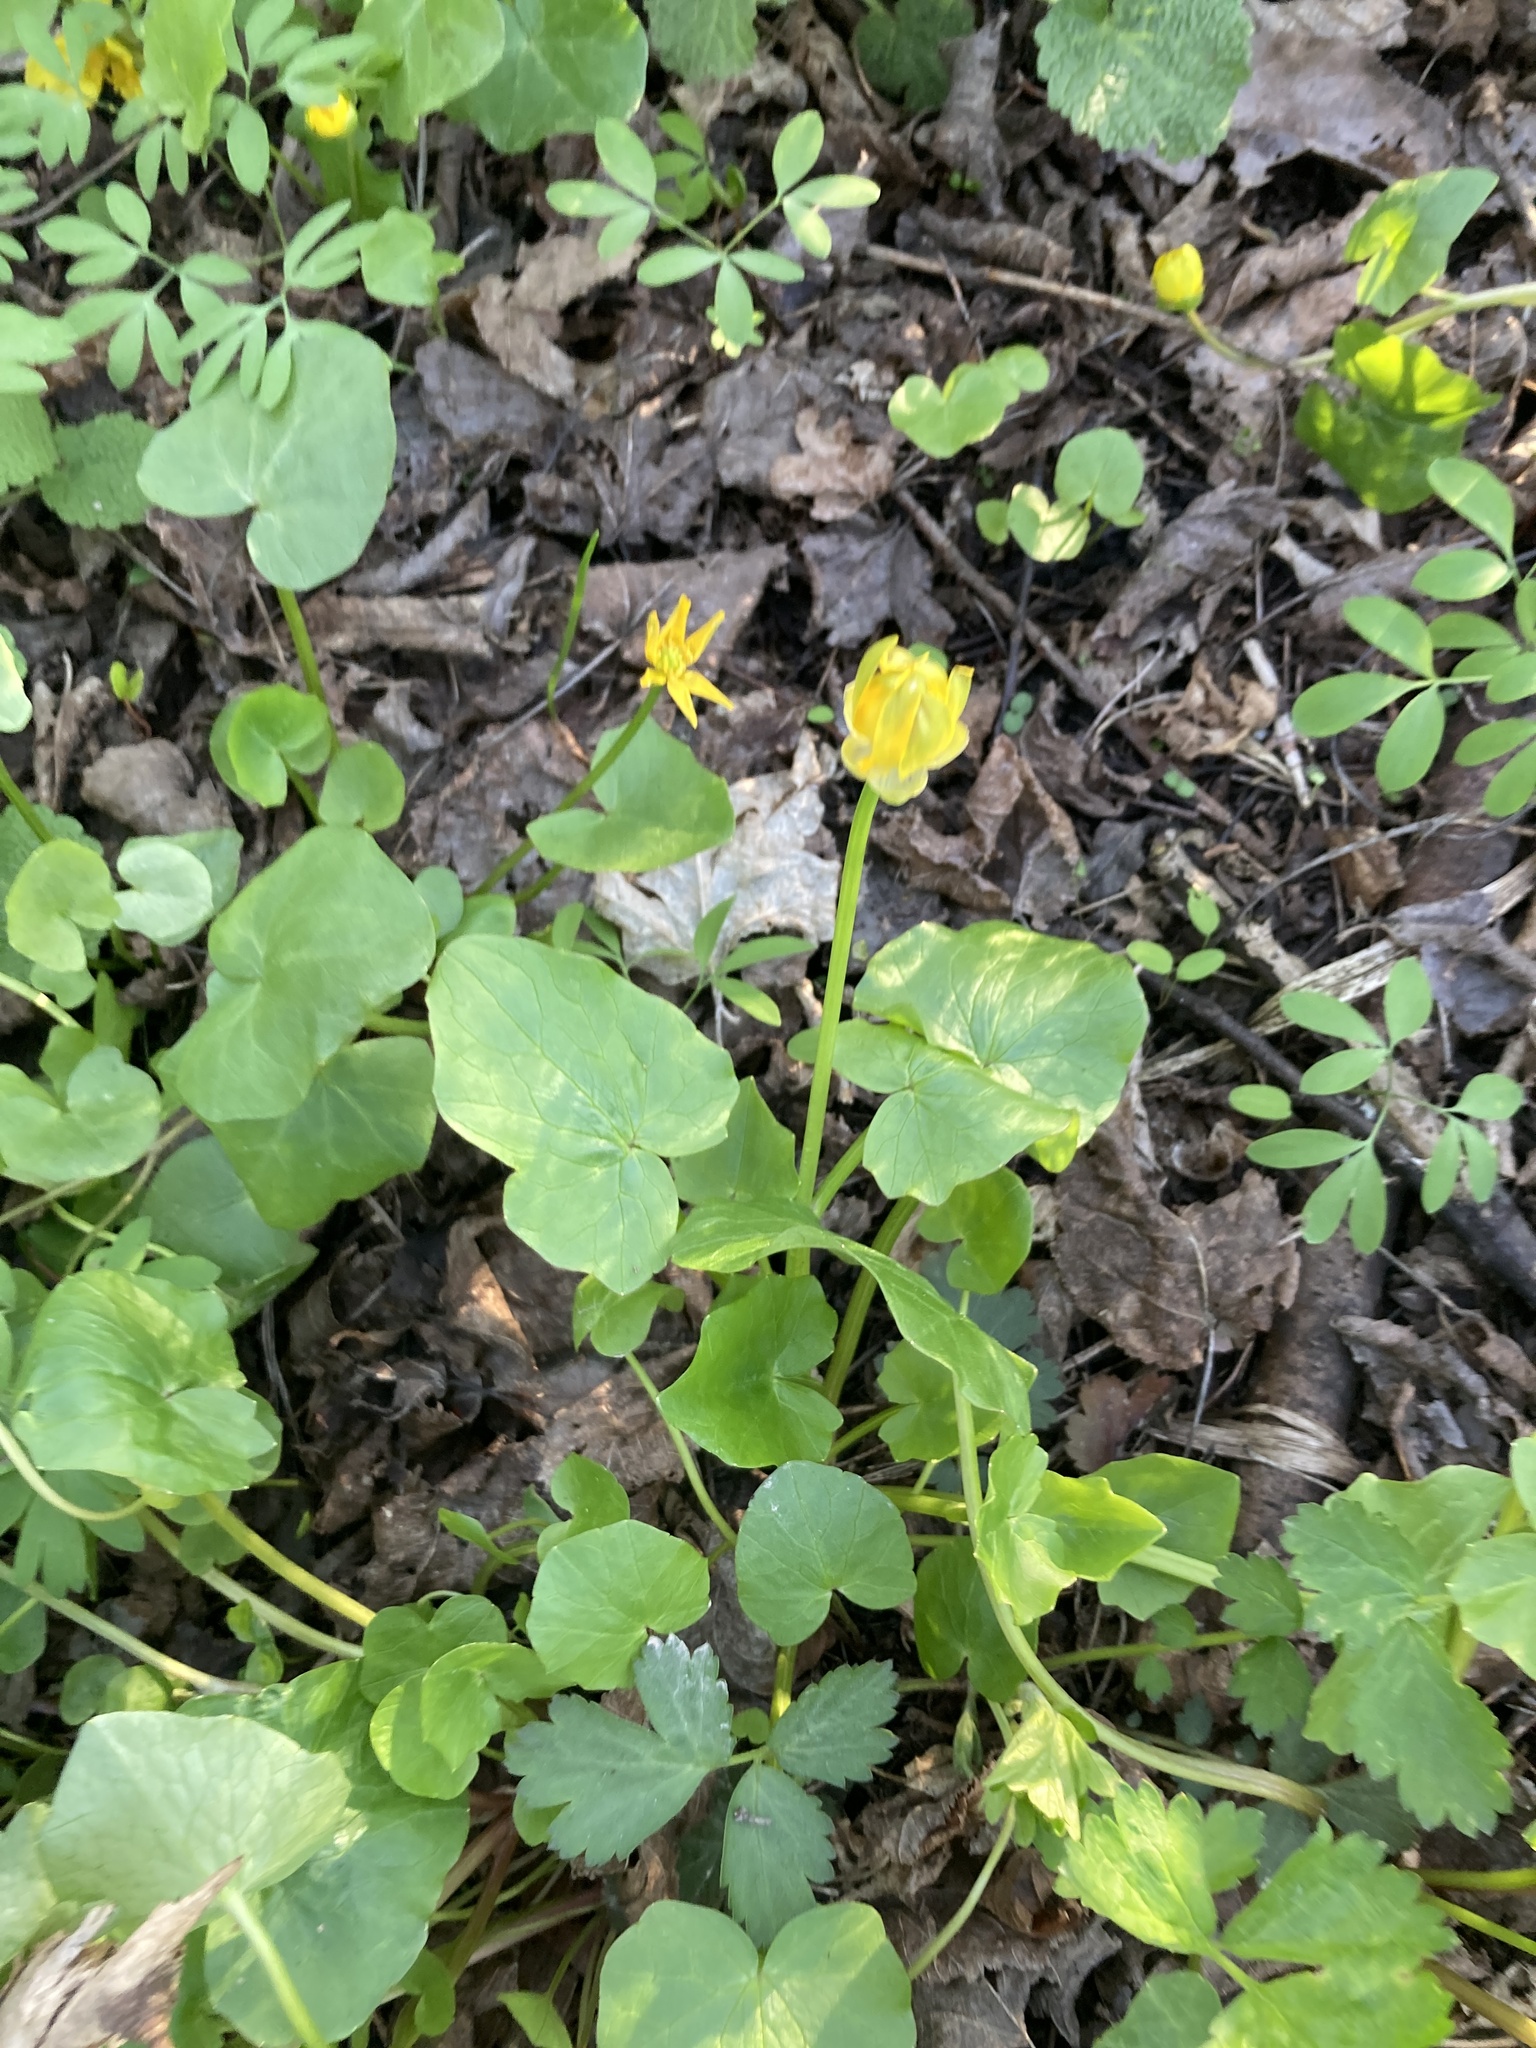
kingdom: Plantae
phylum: Tracheophyta
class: Magnoliopsida
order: Ranunculales
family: Ranunculaceae
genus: Ficaria
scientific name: Ficaria verna
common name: Lesser celandine
